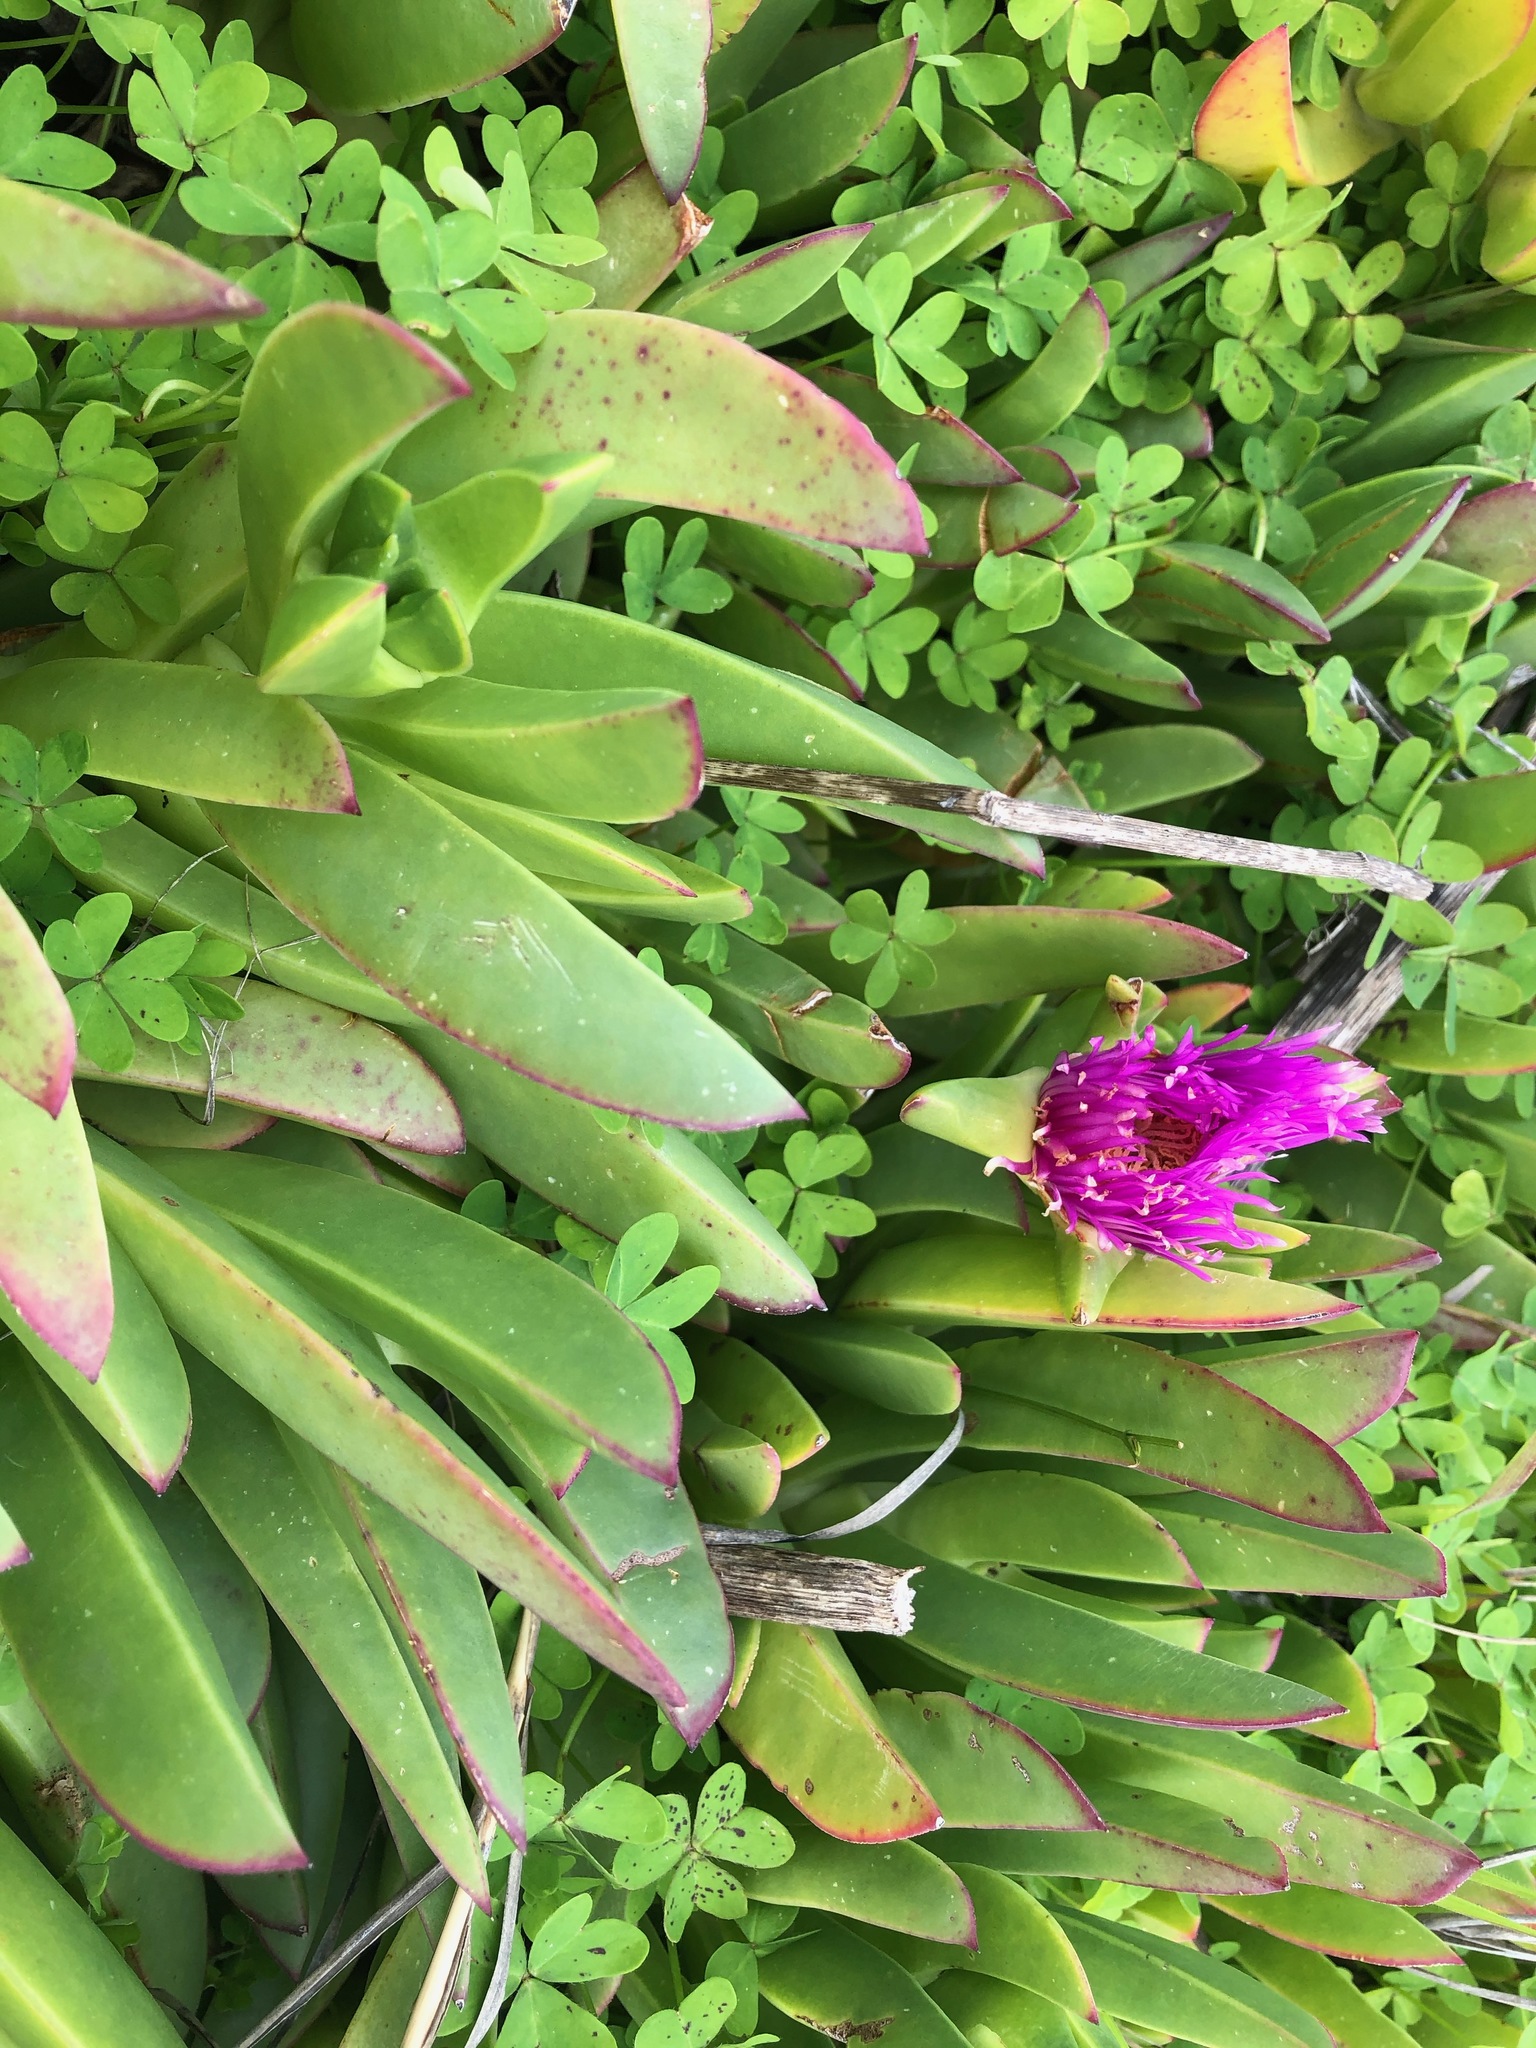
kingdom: Plantae
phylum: Tracheophyta
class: Magnoliopsida
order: Caryophyllales
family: Aizoaceae
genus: Carpobrotus
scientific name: Carpobrotus chilensis
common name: Sea fig
